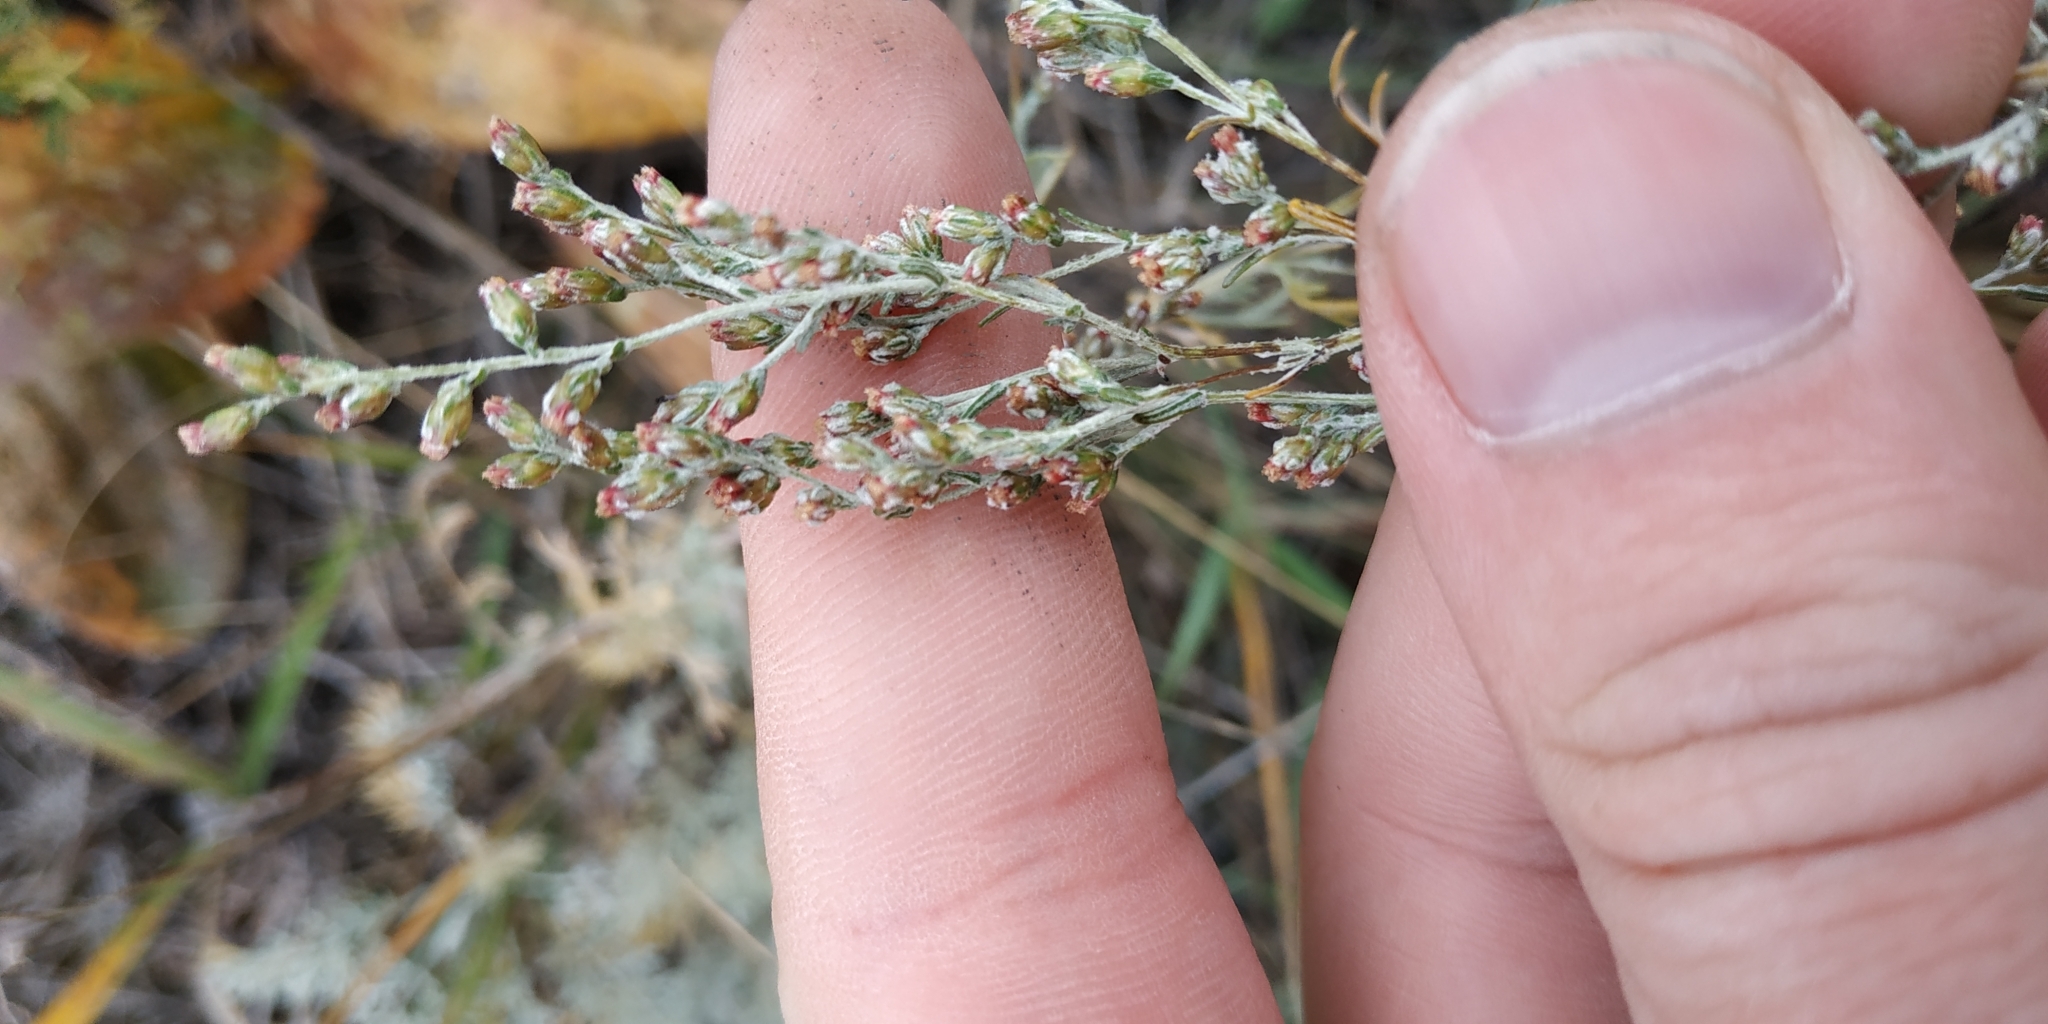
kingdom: Plantae
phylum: Tracheophyta
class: Magnoliopsida
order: Asterales
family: Asteraceae
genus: Artemisia
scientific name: Artemisia nitrosa
